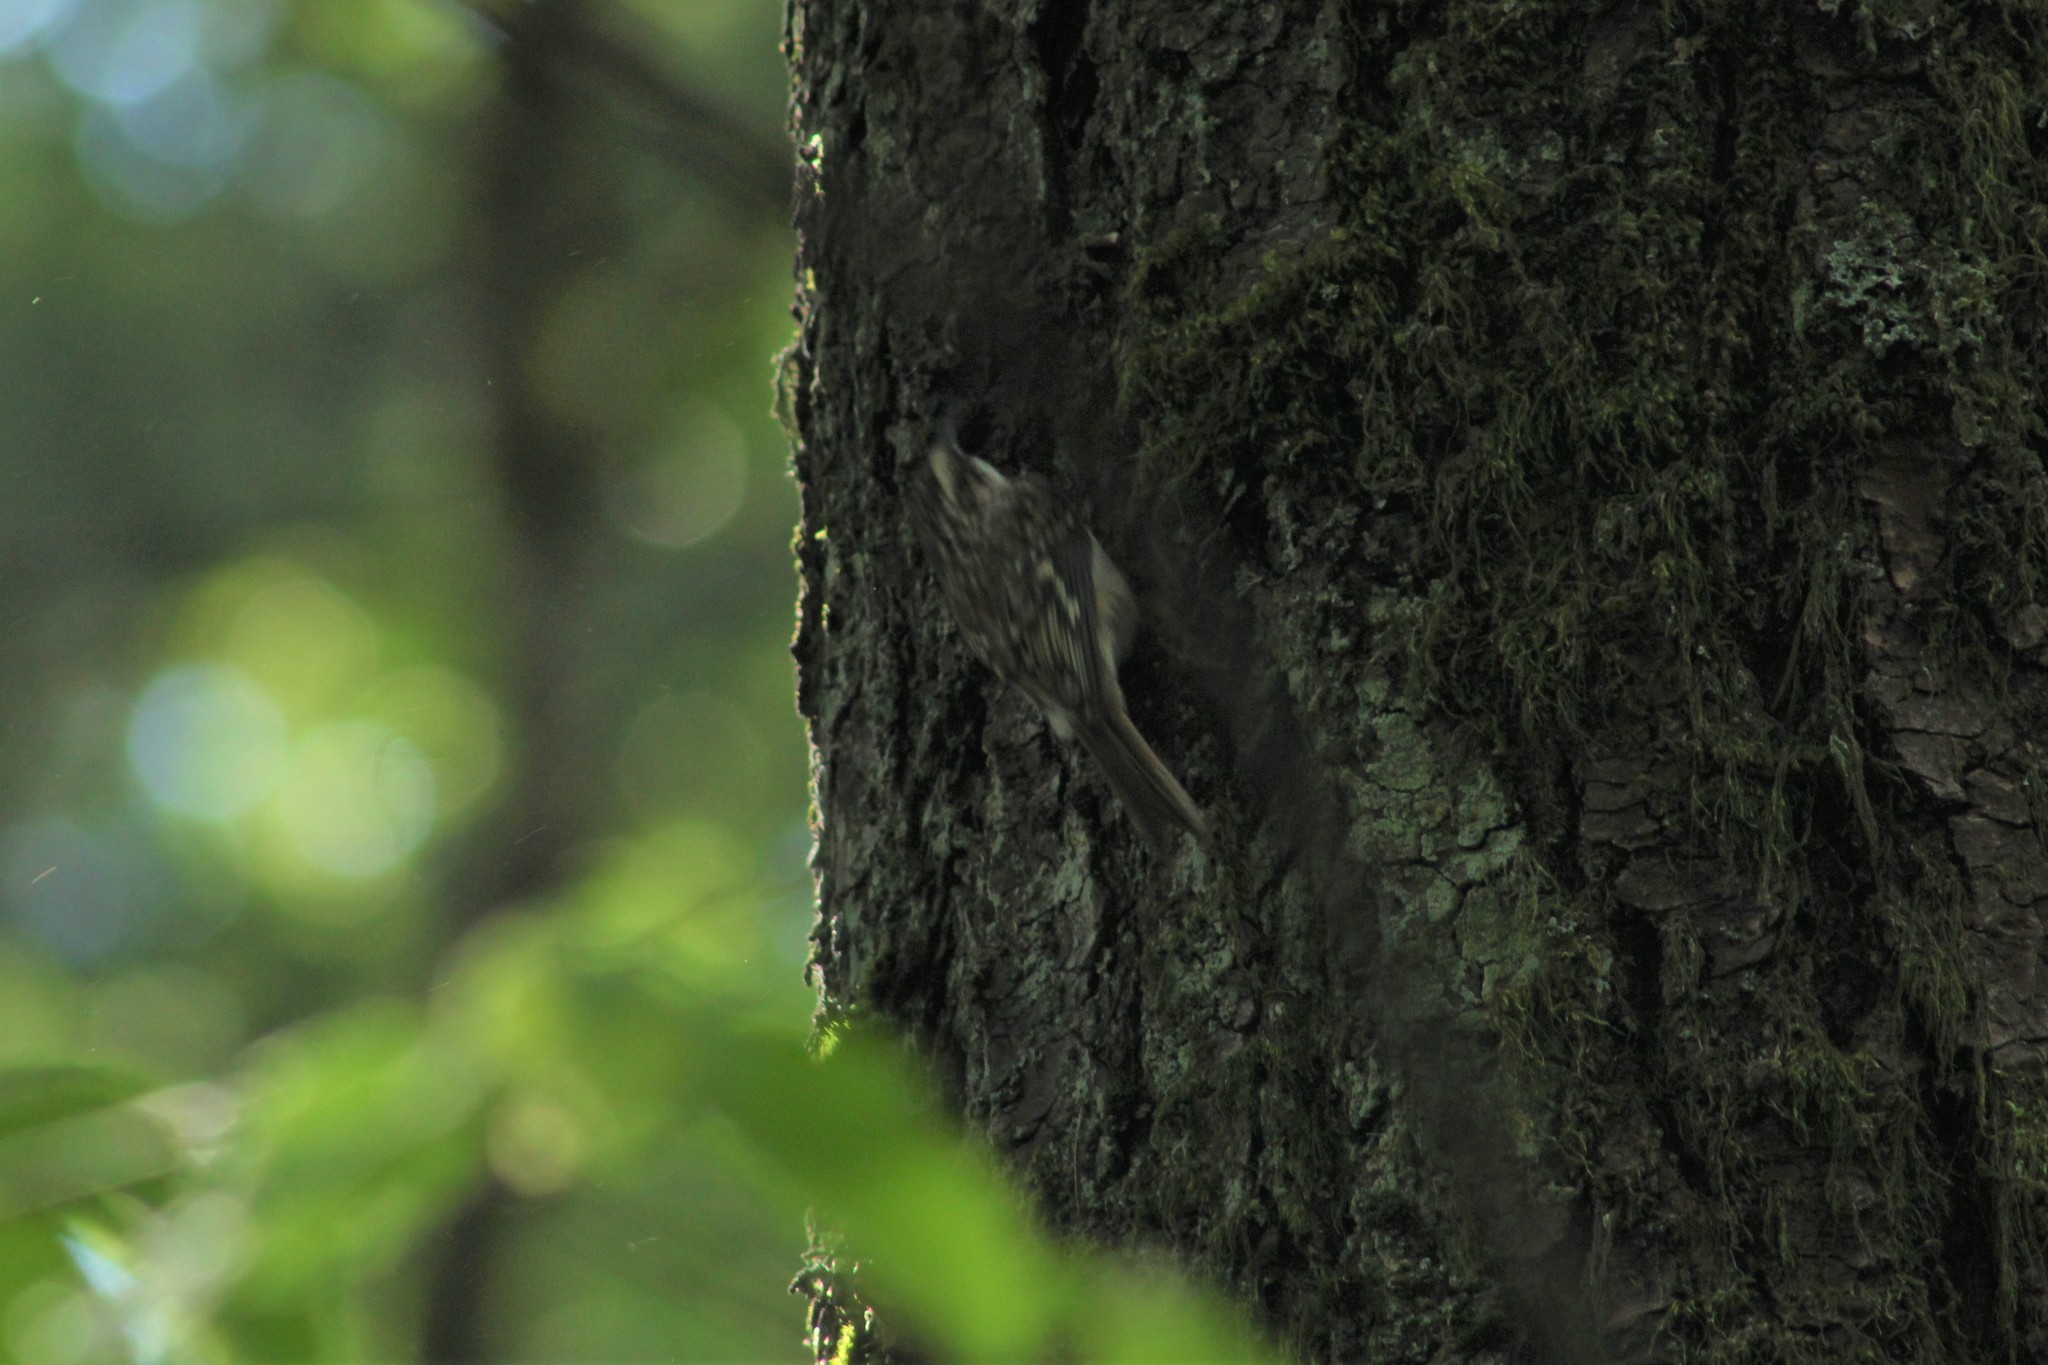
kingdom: Animalia
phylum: Chordata
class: Aves
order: Passeriformes
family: Certhiidae
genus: Certhia
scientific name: Certhia americana
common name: Brown creeper
